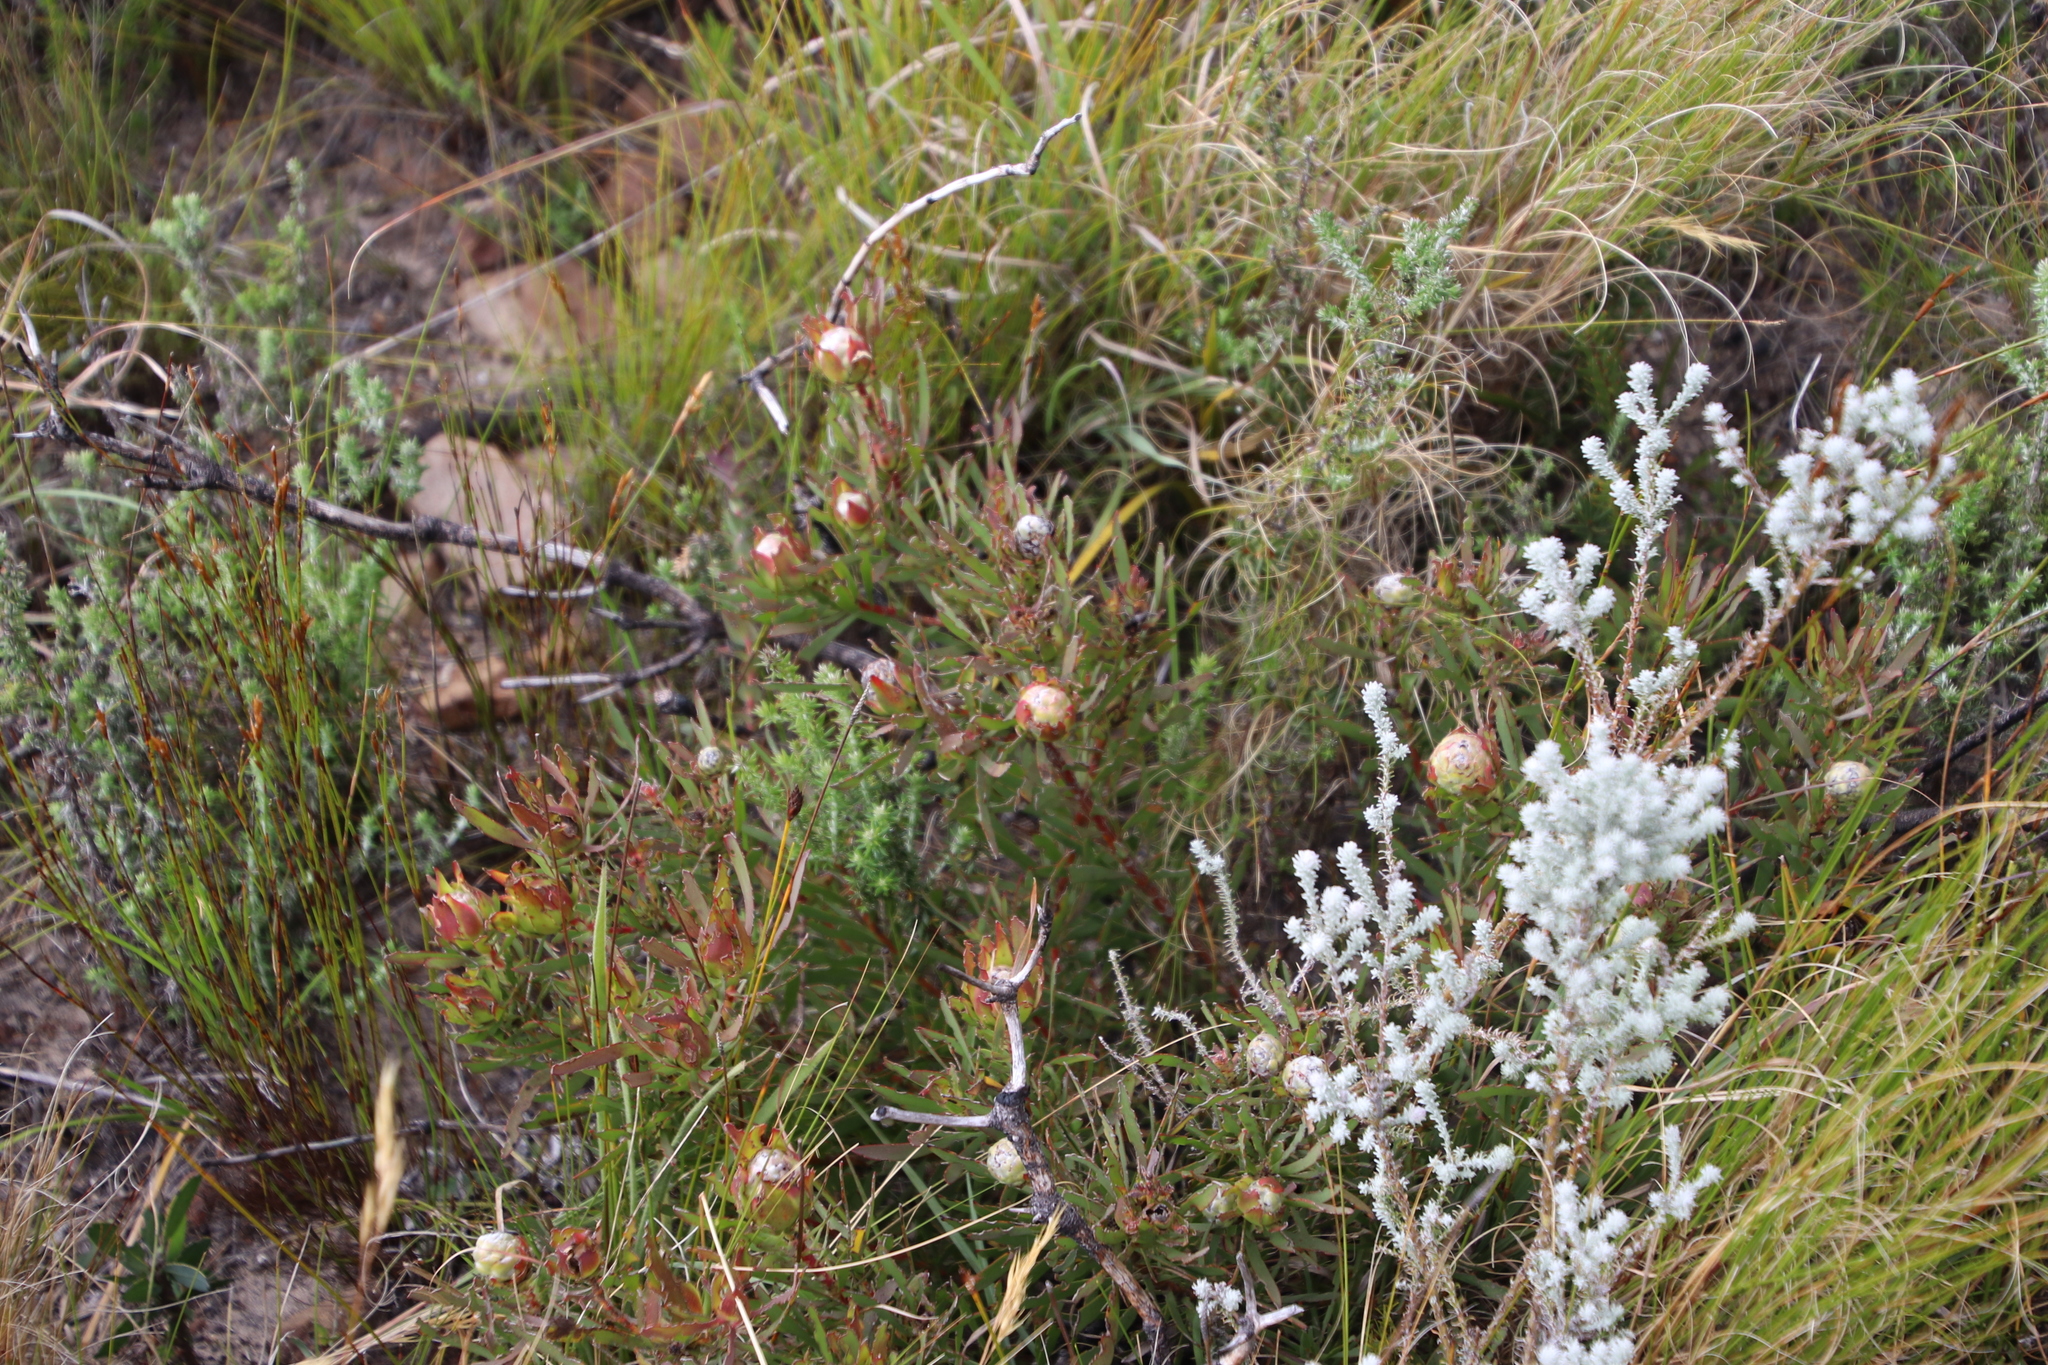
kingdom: Plantae
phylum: Tracheophyta
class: Magnoliopsida
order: Proteales
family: Proteaceae
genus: Leucadendron
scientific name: Leucadendron salignum
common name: Common sunshine conebush
